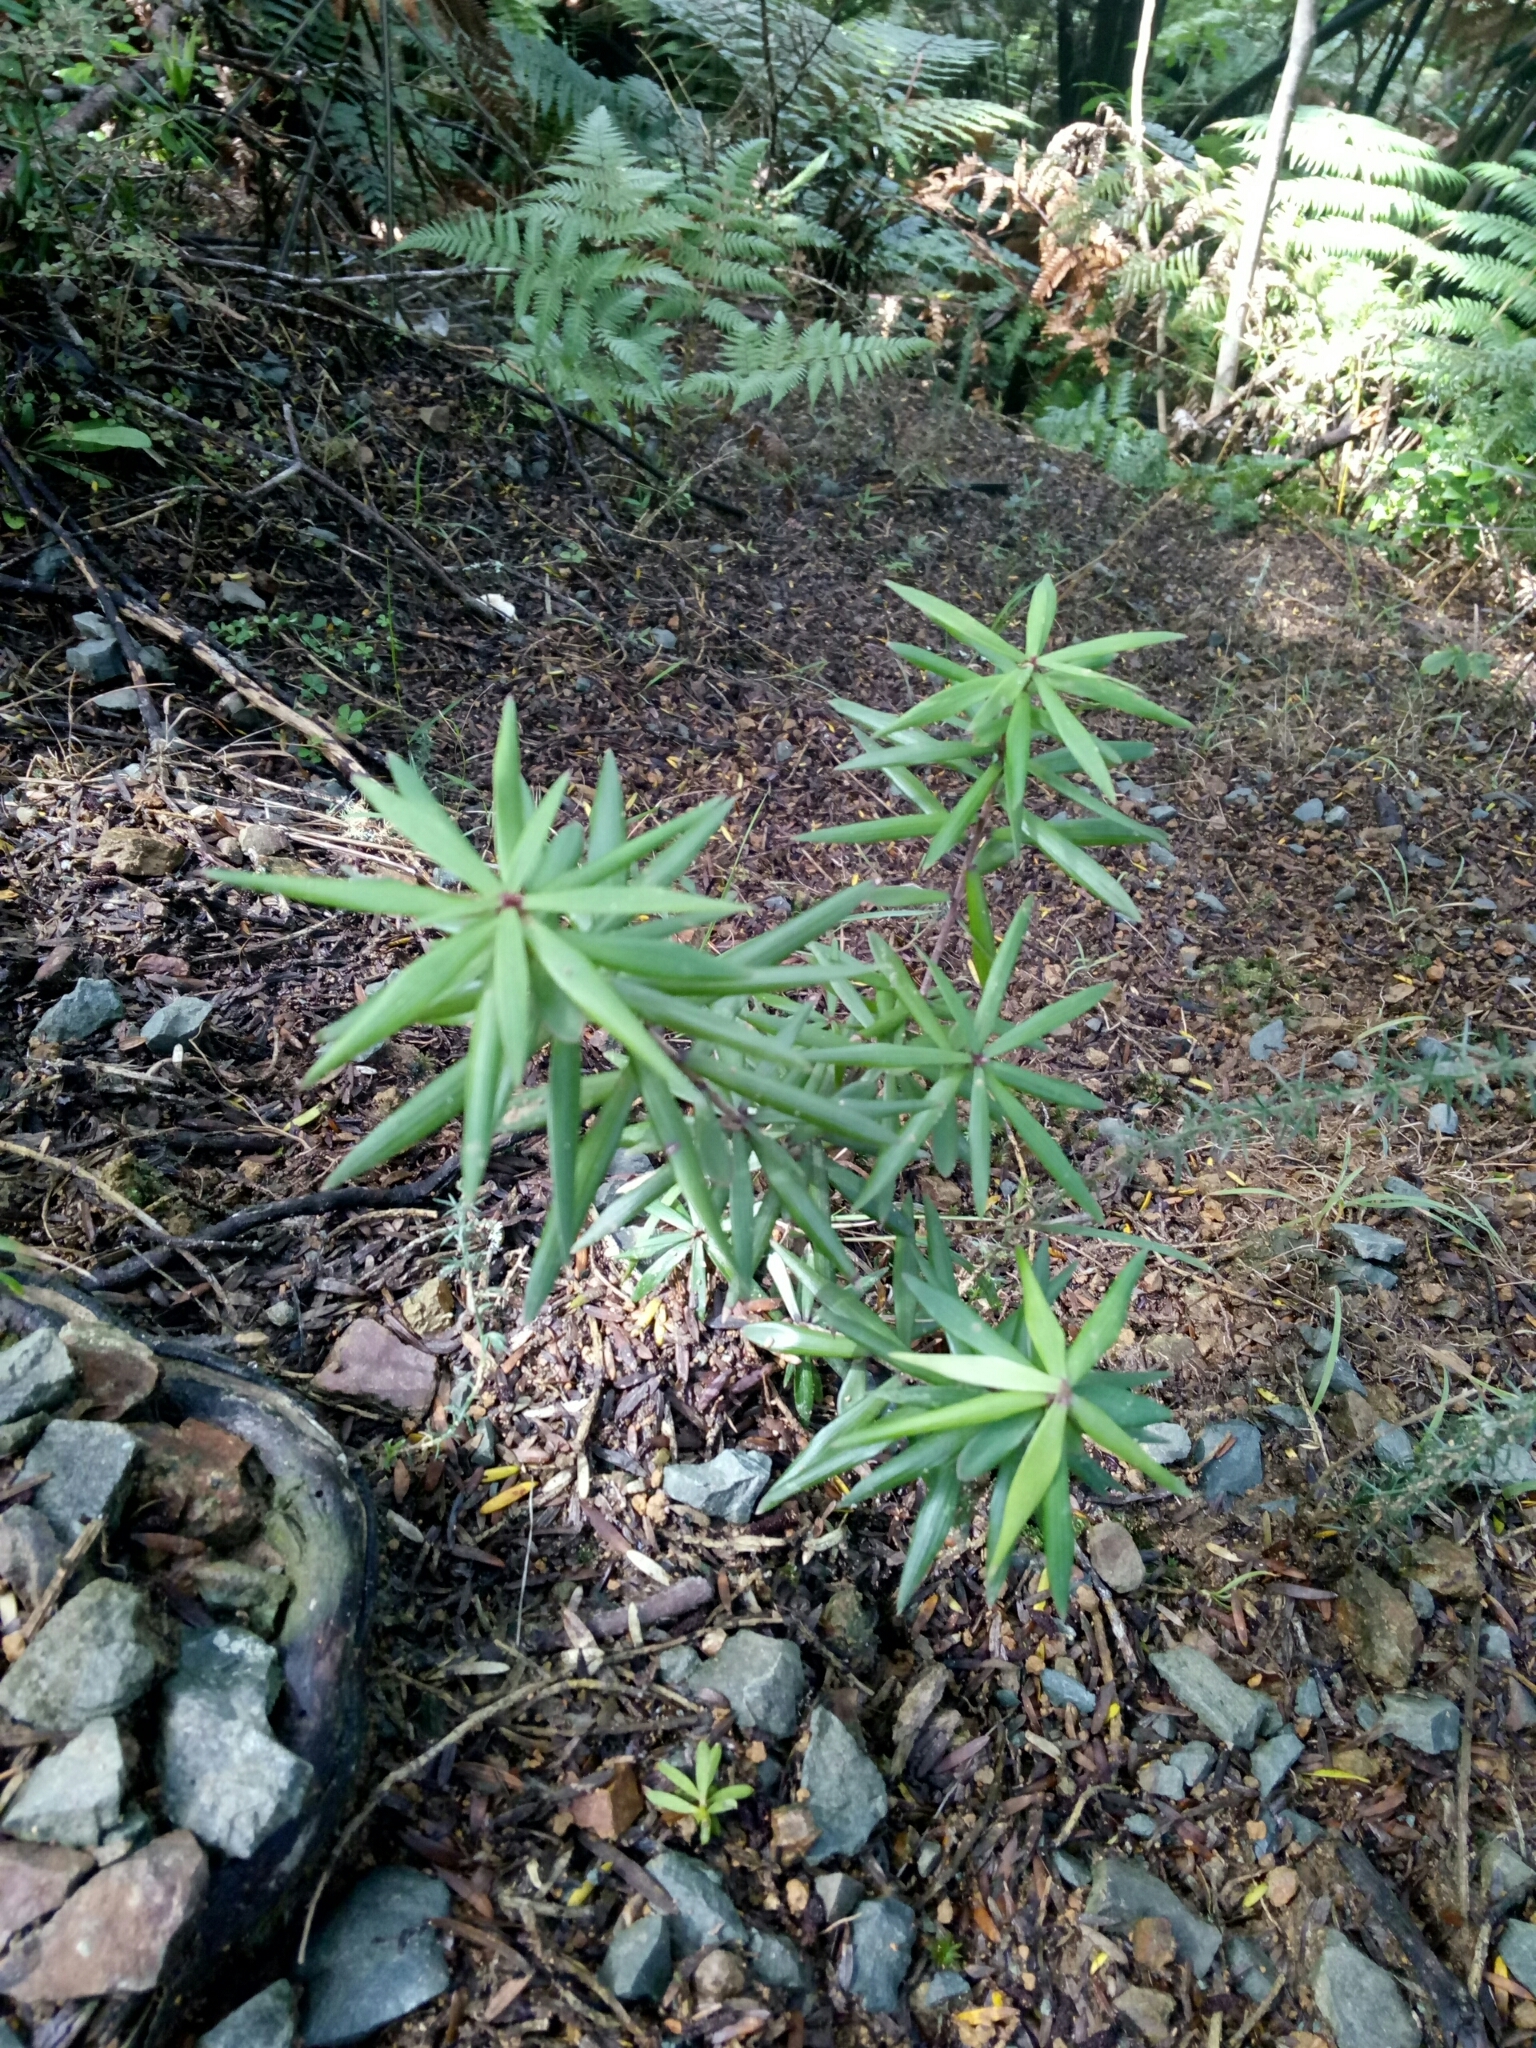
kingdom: Plantae
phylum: Tracheophyta
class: Magnoliopsida
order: Ericales
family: Ericaceae
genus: Leucopogon
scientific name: Leucopogon fasciculatus
